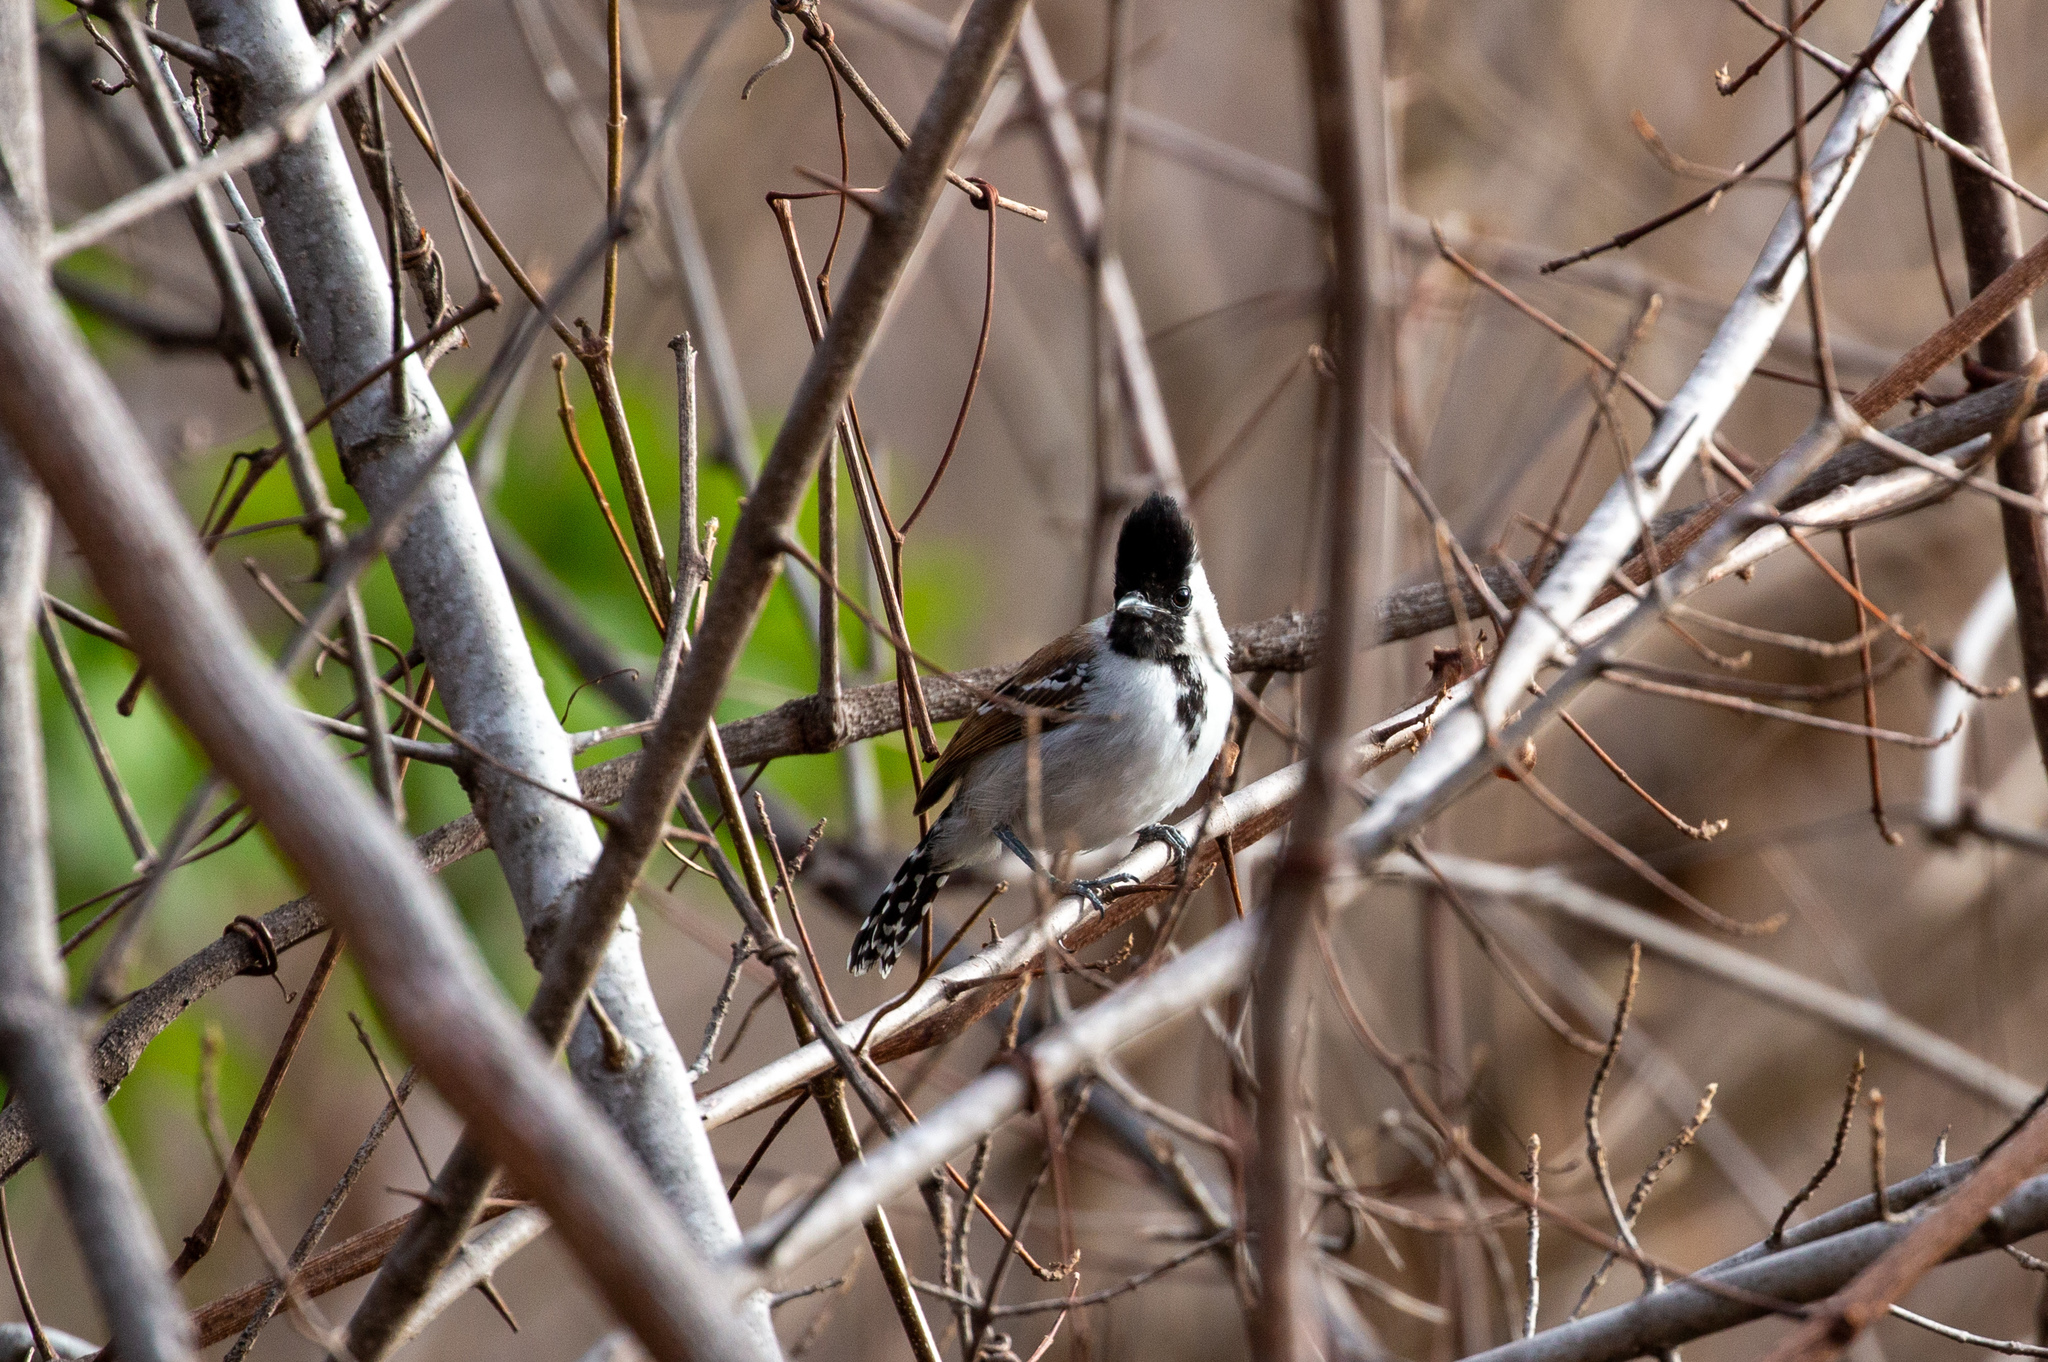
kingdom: Animalia
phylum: Chordata
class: Aves
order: Passeriformes
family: Thamnophilidae
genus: Sakesphorus
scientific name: Sakesphorus cristatus
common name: Silvery-cheeked antshrike
